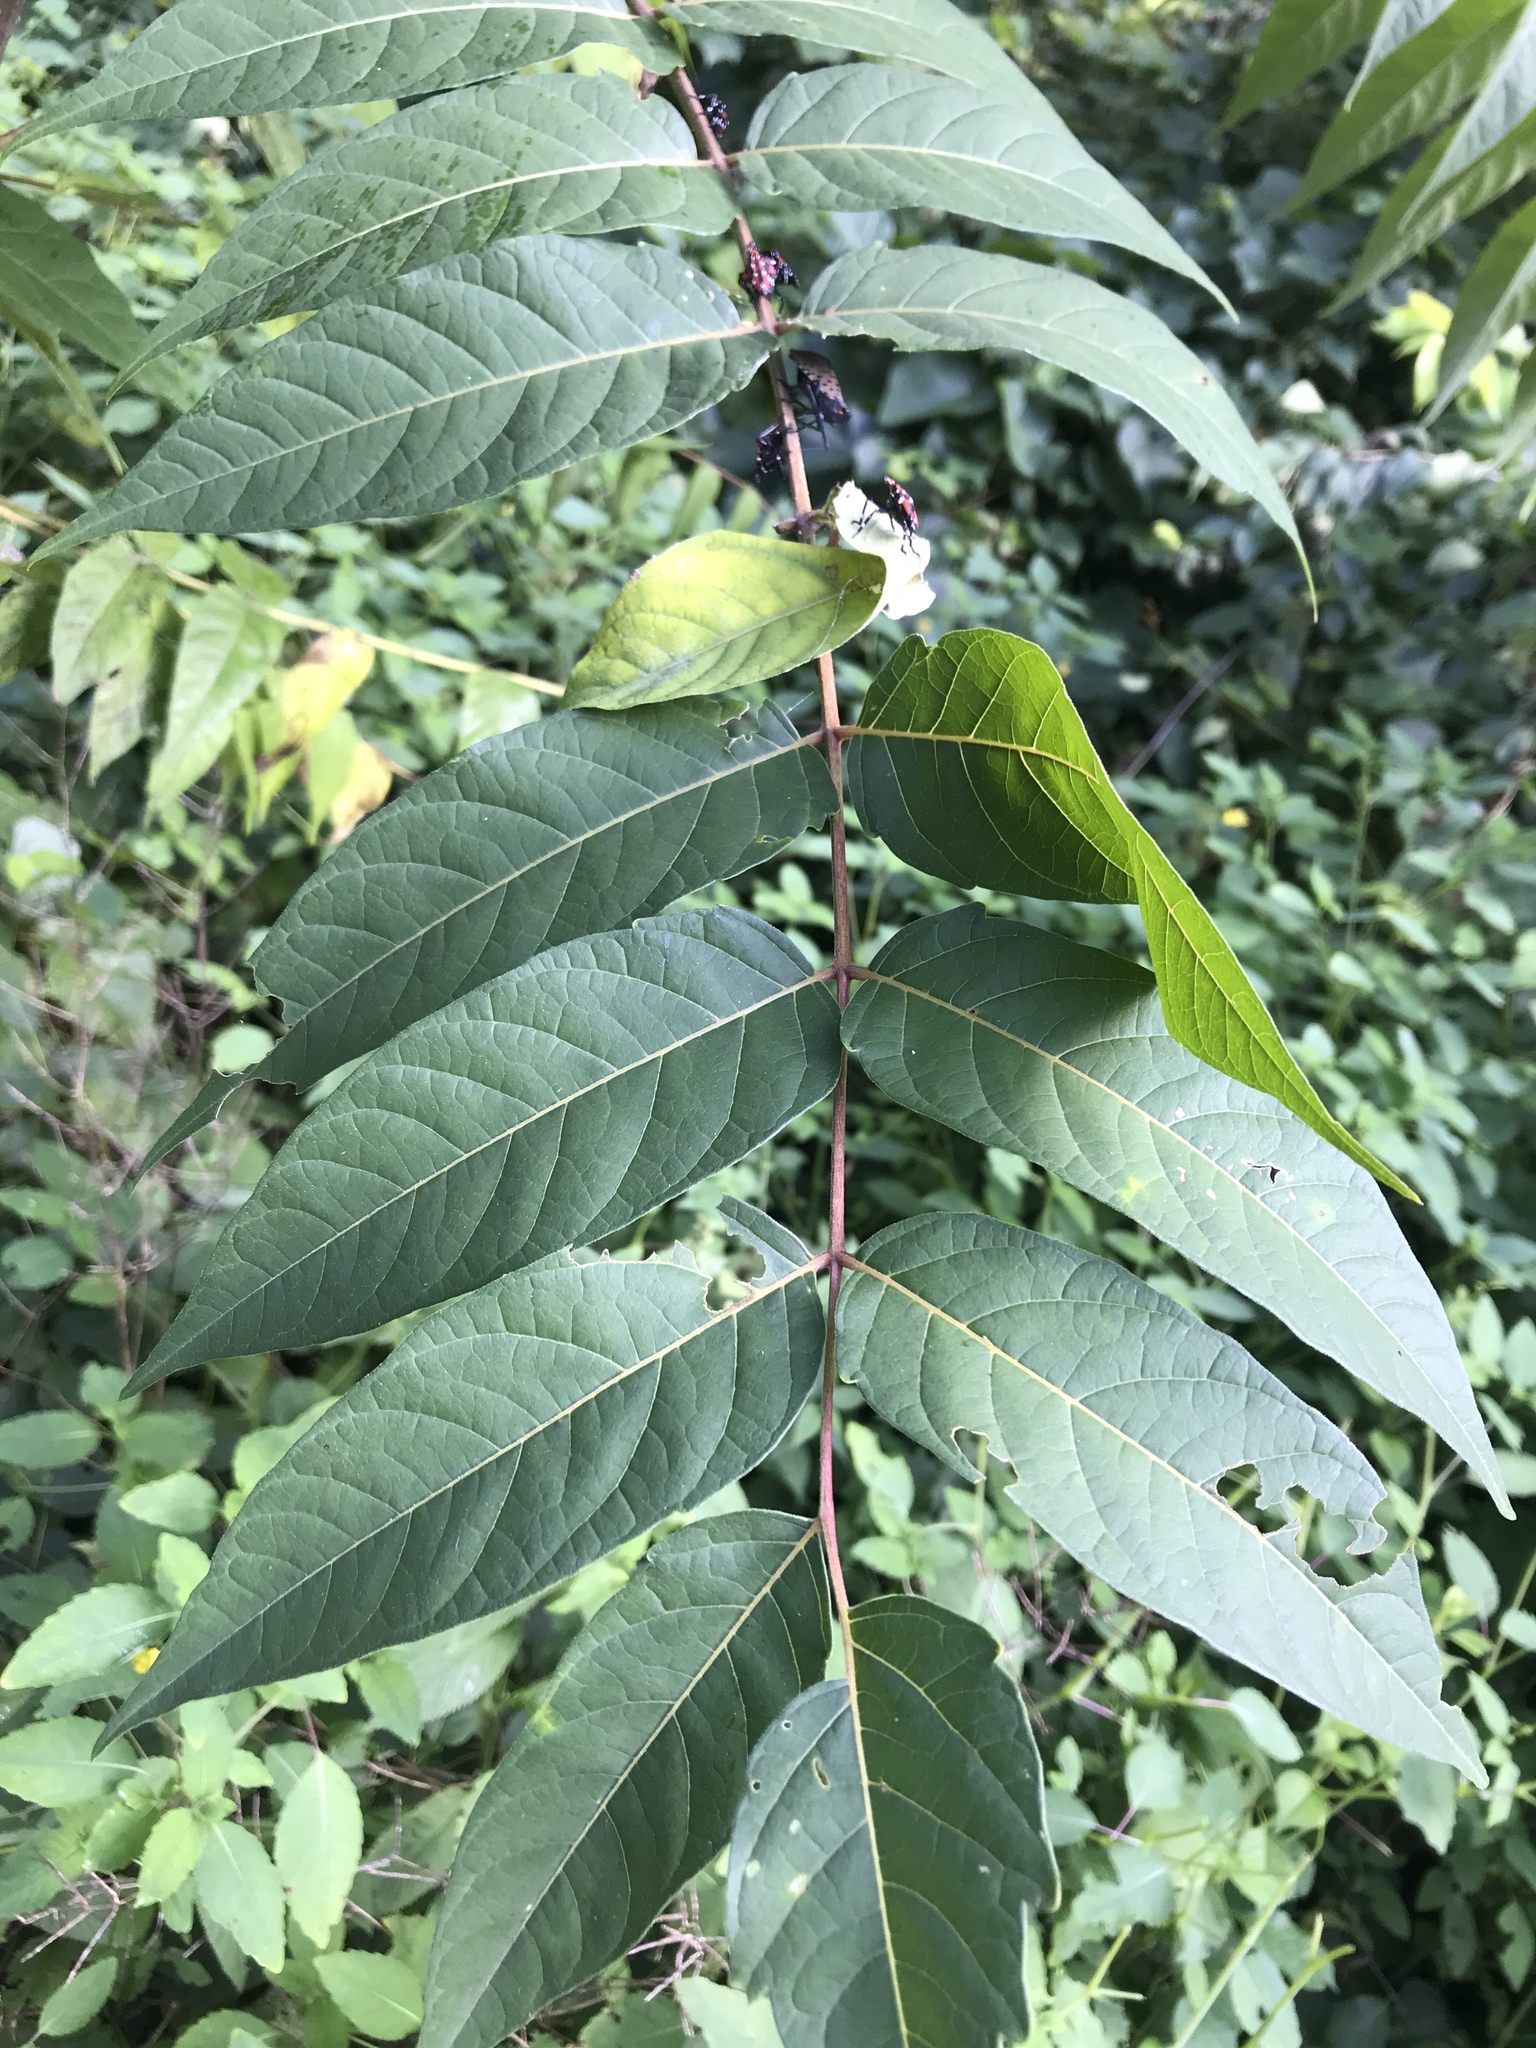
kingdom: Plantae
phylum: Tracheophyta
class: Magnoliopsida
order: Sapindales
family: Simaroubaceae
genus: Ailanthus
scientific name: Ailanthus altissima
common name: Tree-of-heaven
